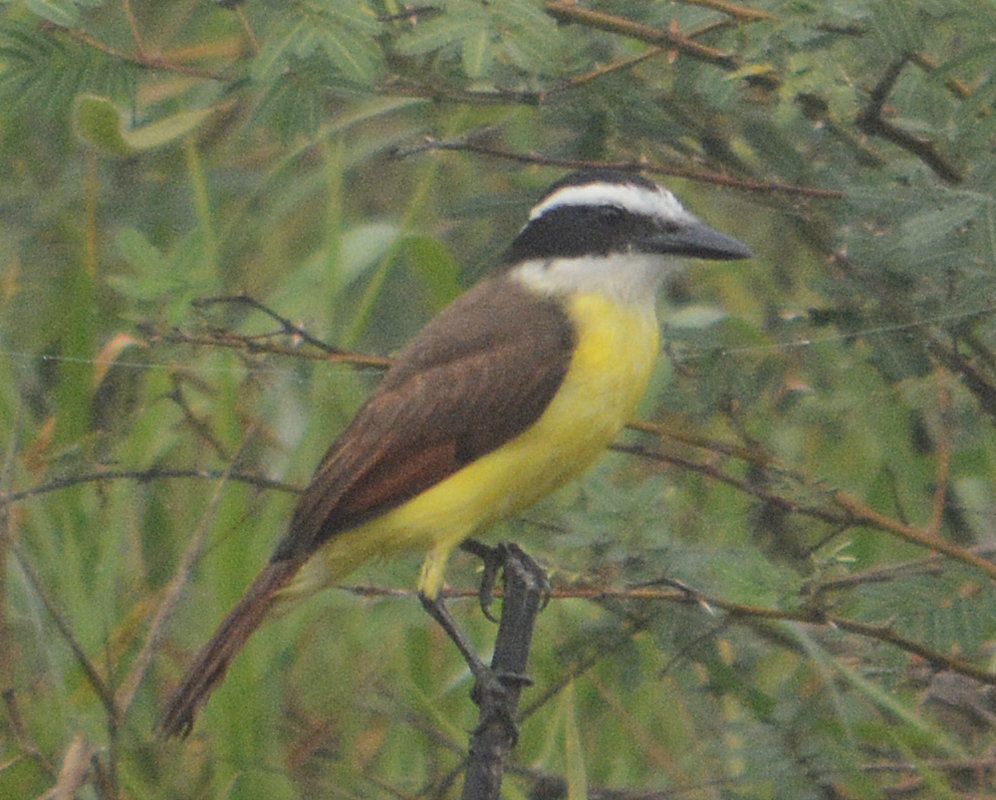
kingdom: Animalia
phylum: Chordata
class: Aves
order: Passeriformes
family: Tyrannidae
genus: Pitangus
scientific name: Pitangus sulphuratus
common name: Great kiskadee
